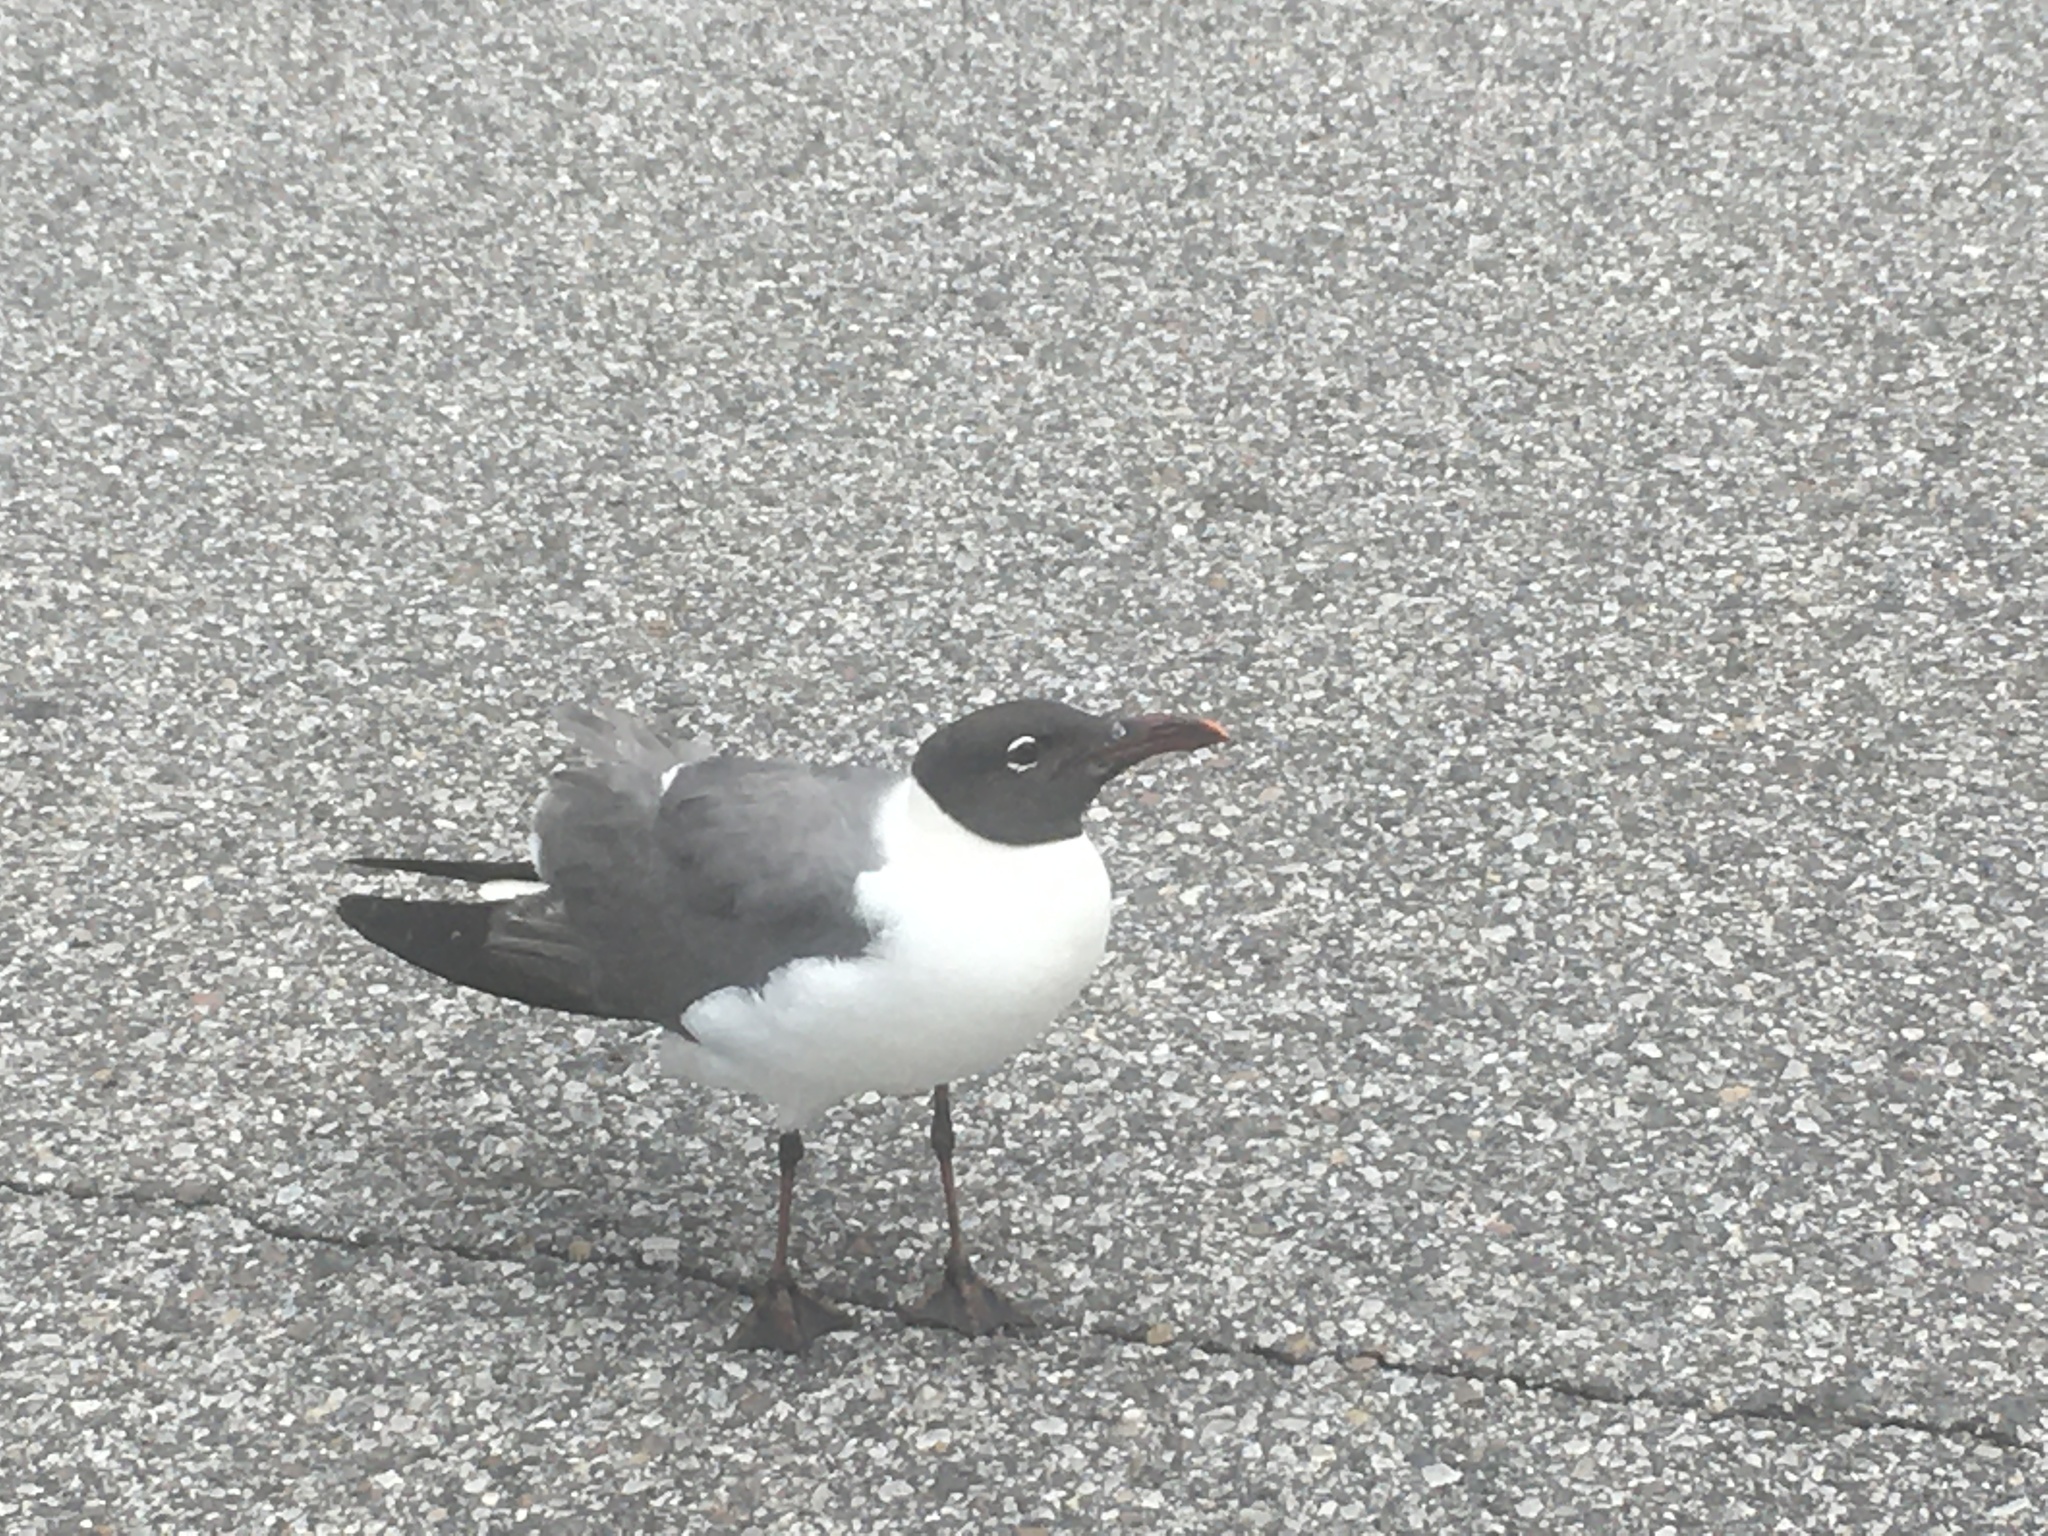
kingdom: Animalia
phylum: Chordata
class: Aves
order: Charadriiformes
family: Laridae
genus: Leucophaeus
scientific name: Leucophaeus atricilla
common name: Laughing gull
